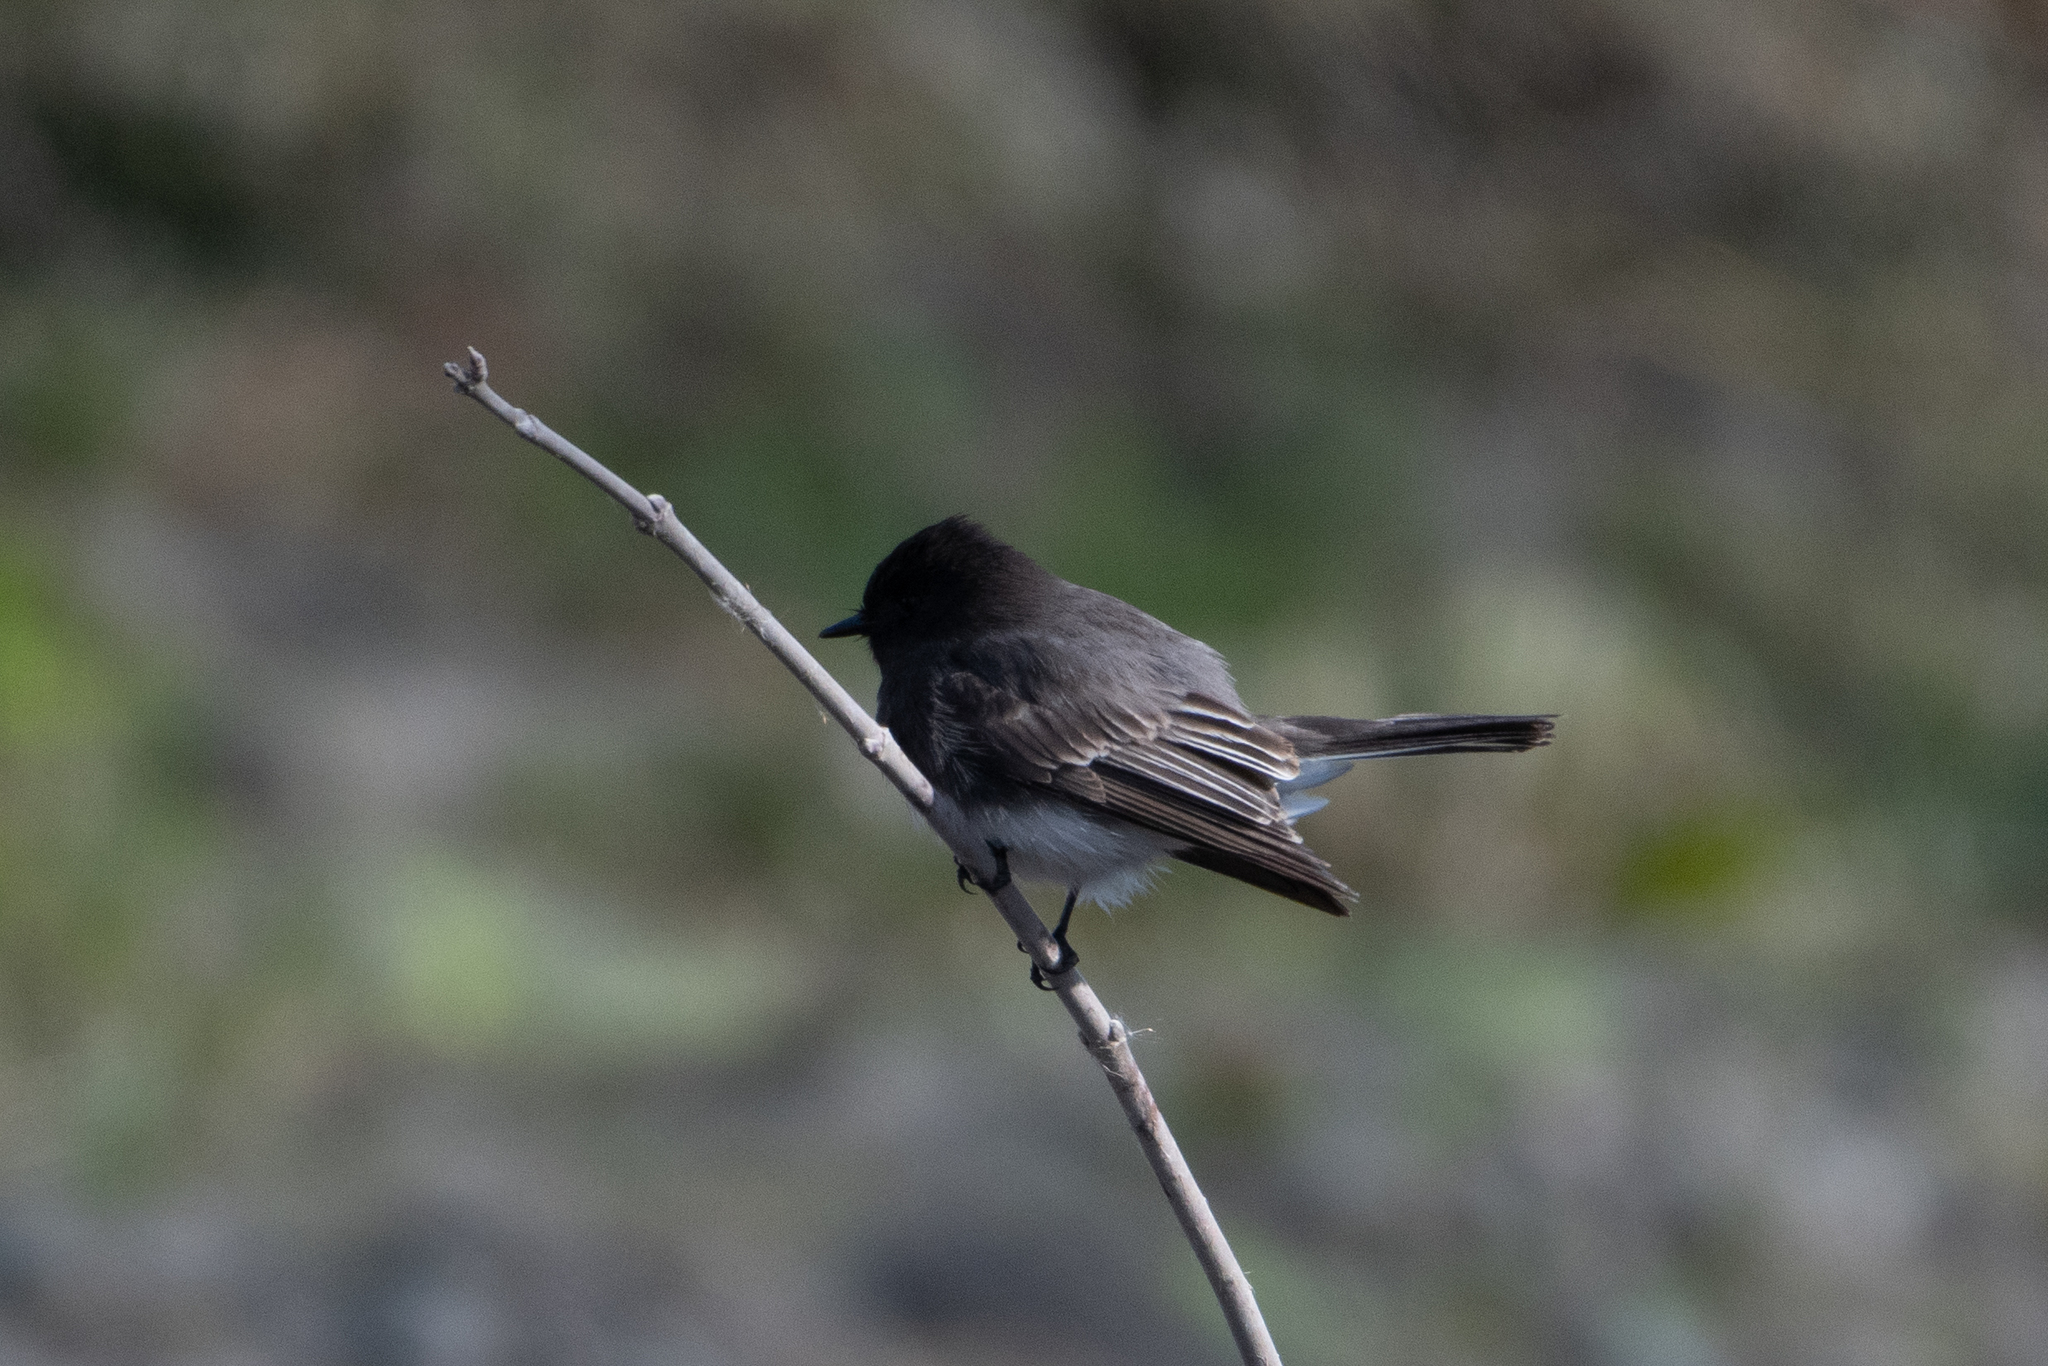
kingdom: Animalia
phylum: Chordata
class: Aves
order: Passeriformes
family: Tyrannidae
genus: Sayornis
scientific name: Sayornis nigricans
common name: Black phoebe
